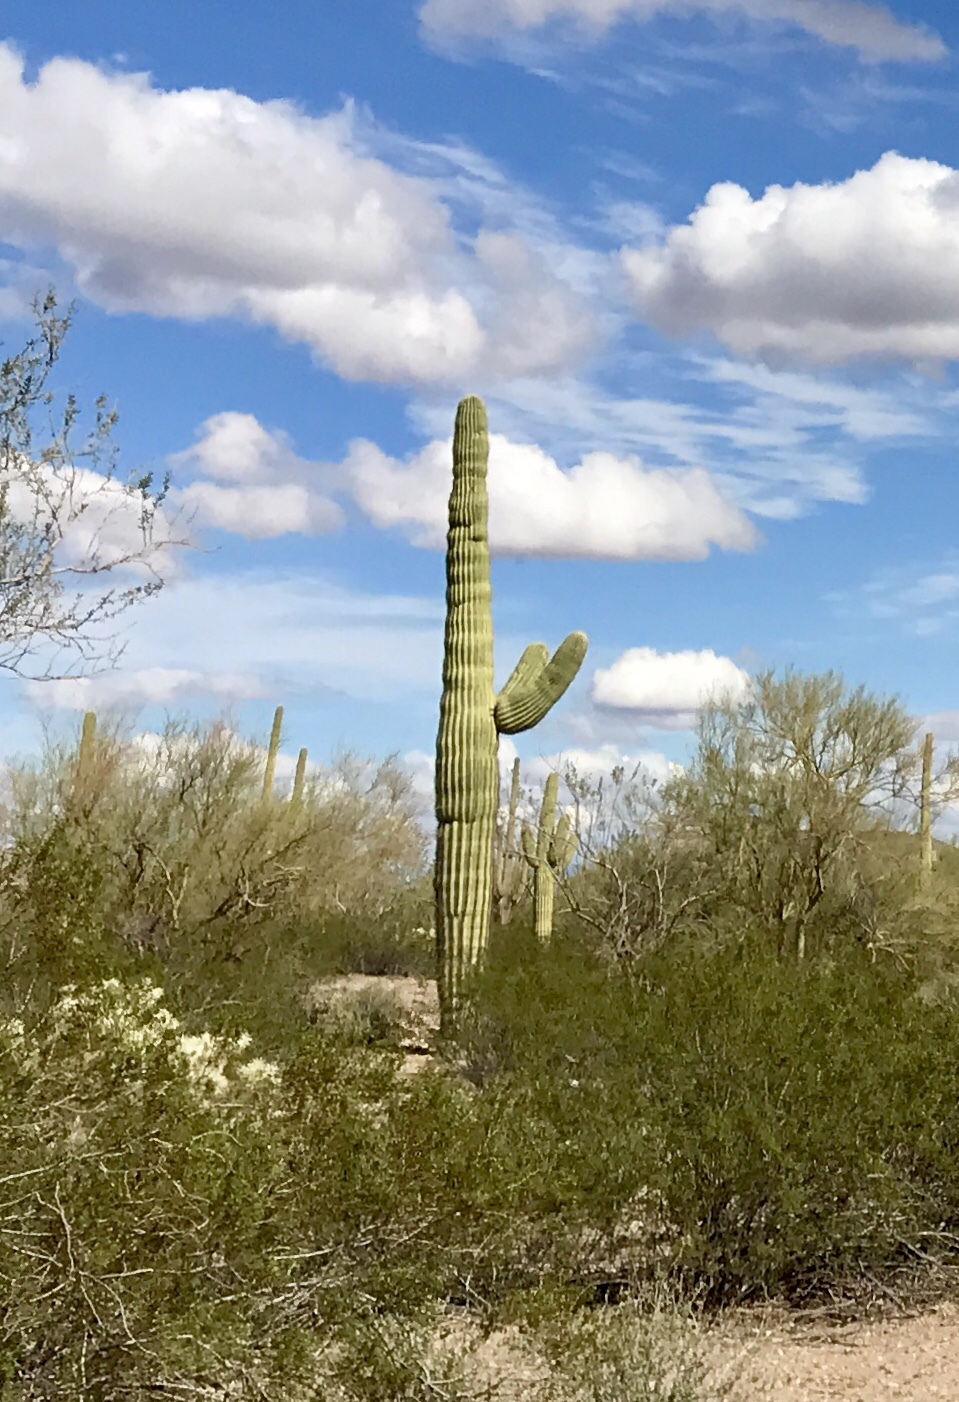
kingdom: Plantae
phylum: Tracheophyta
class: Magnoliopsida
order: Caryophyllales
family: Cactaceae
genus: Carnegiea
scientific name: Carnegiea gigantea
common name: Saguaro
